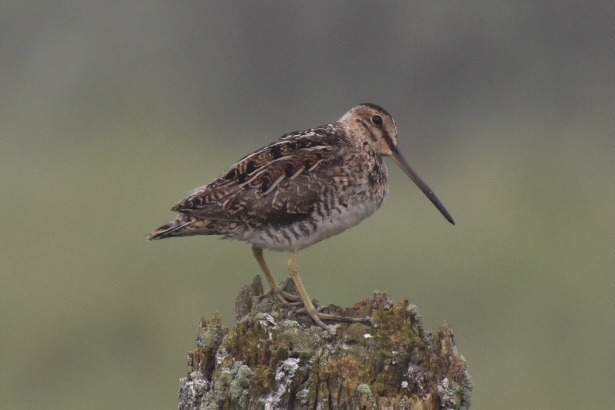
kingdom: Animalia
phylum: Chordata
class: Aves
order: Charadriiformes
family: Scolopacidae
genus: Gallinago
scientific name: Gallinago delicata
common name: Wilson's snipe
